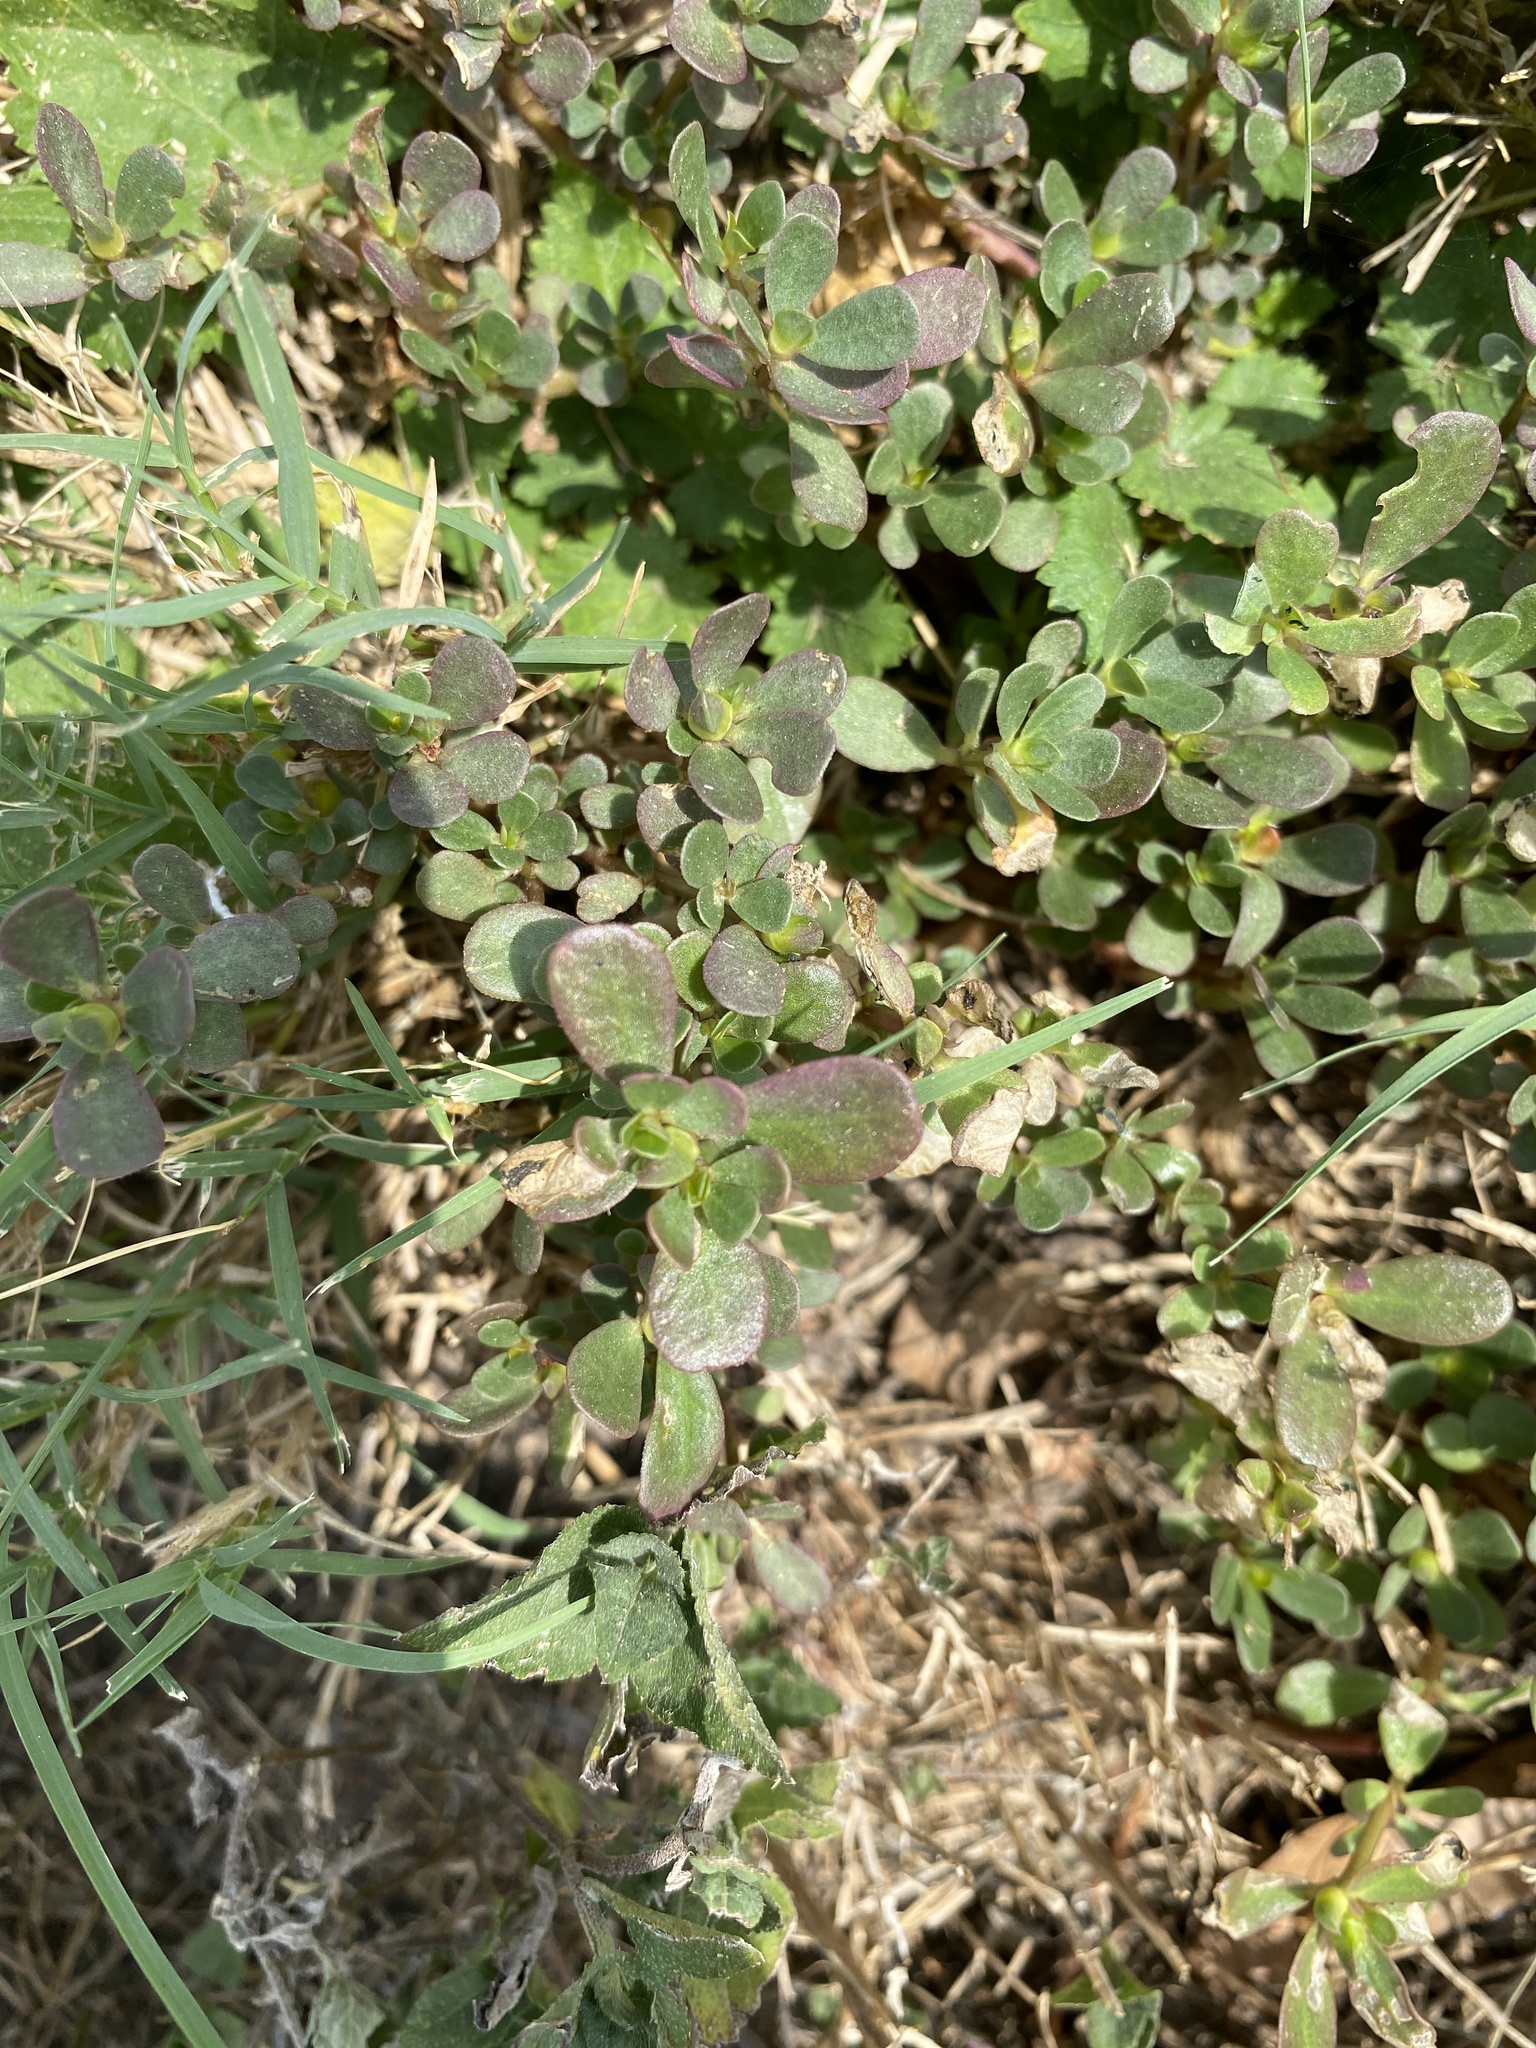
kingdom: Plantae
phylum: Tracheophyta
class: Magnoliopsida
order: Caryophyllales
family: Portulacaceae
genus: Portulaca
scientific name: Portulaca oleracea
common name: Common purslane
